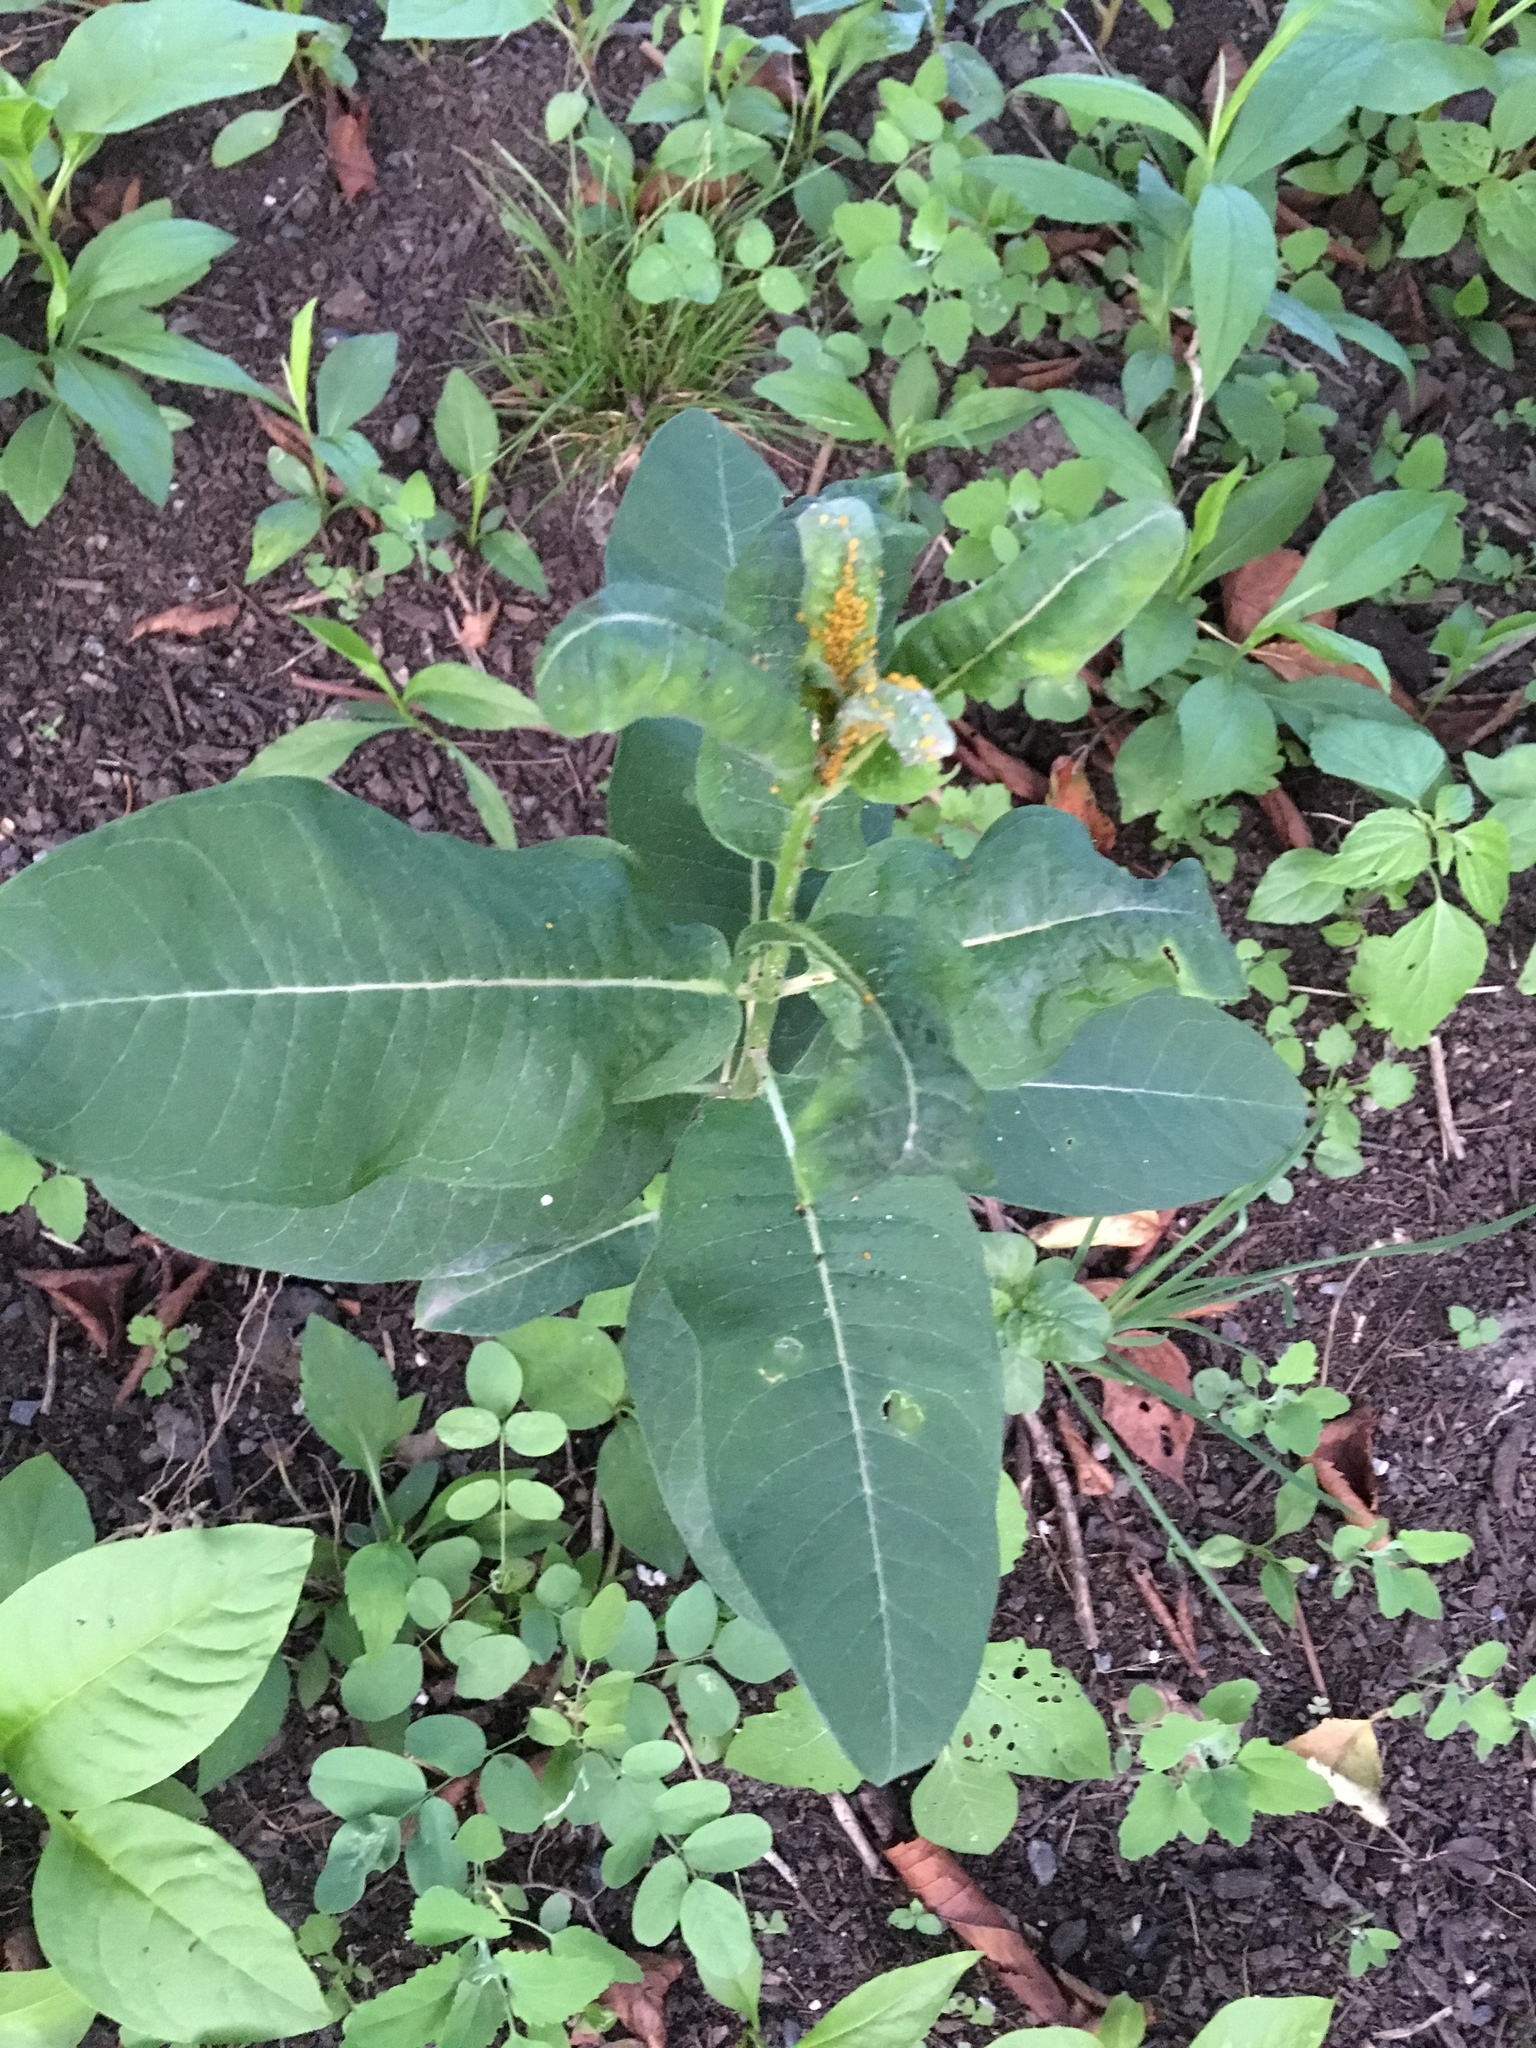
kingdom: Plantae
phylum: Tracheophyta
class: Magnoliopsida
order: Gentianales
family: Apocynaceae
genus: Asclepias
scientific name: Asclepias syriaca
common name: Common milkweed
